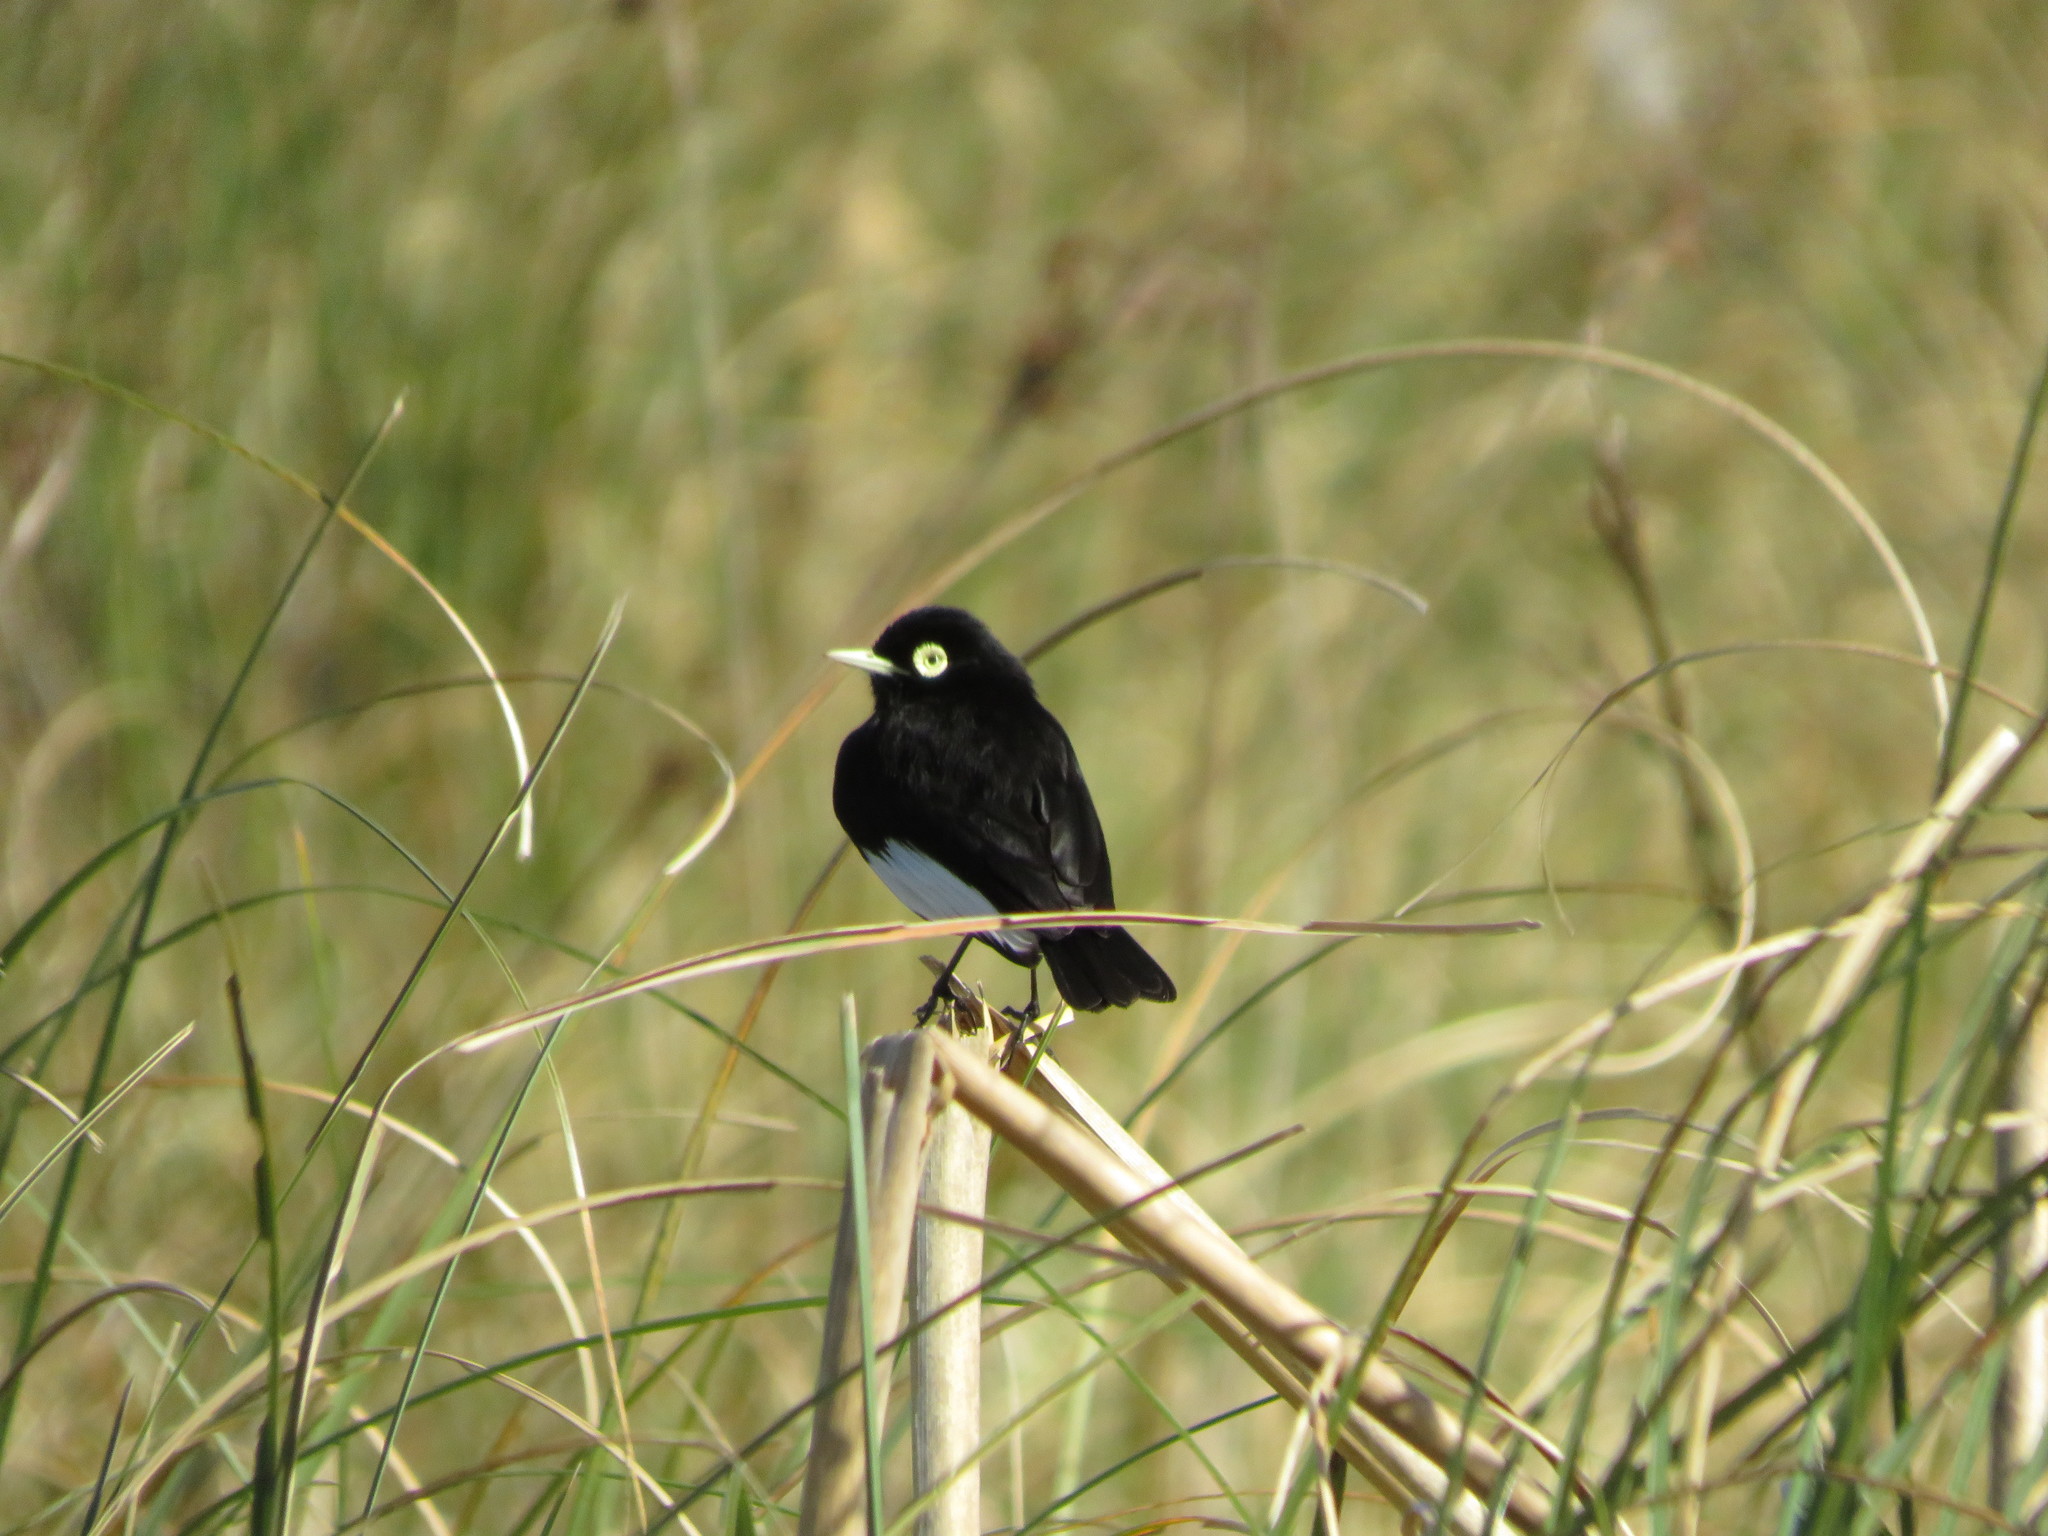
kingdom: Animalia
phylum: Chordata
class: Aves
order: Passeriformes
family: Tyrannidae
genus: Hymenops
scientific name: Hymenops perspicillatus
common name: Spectacled tyrant
